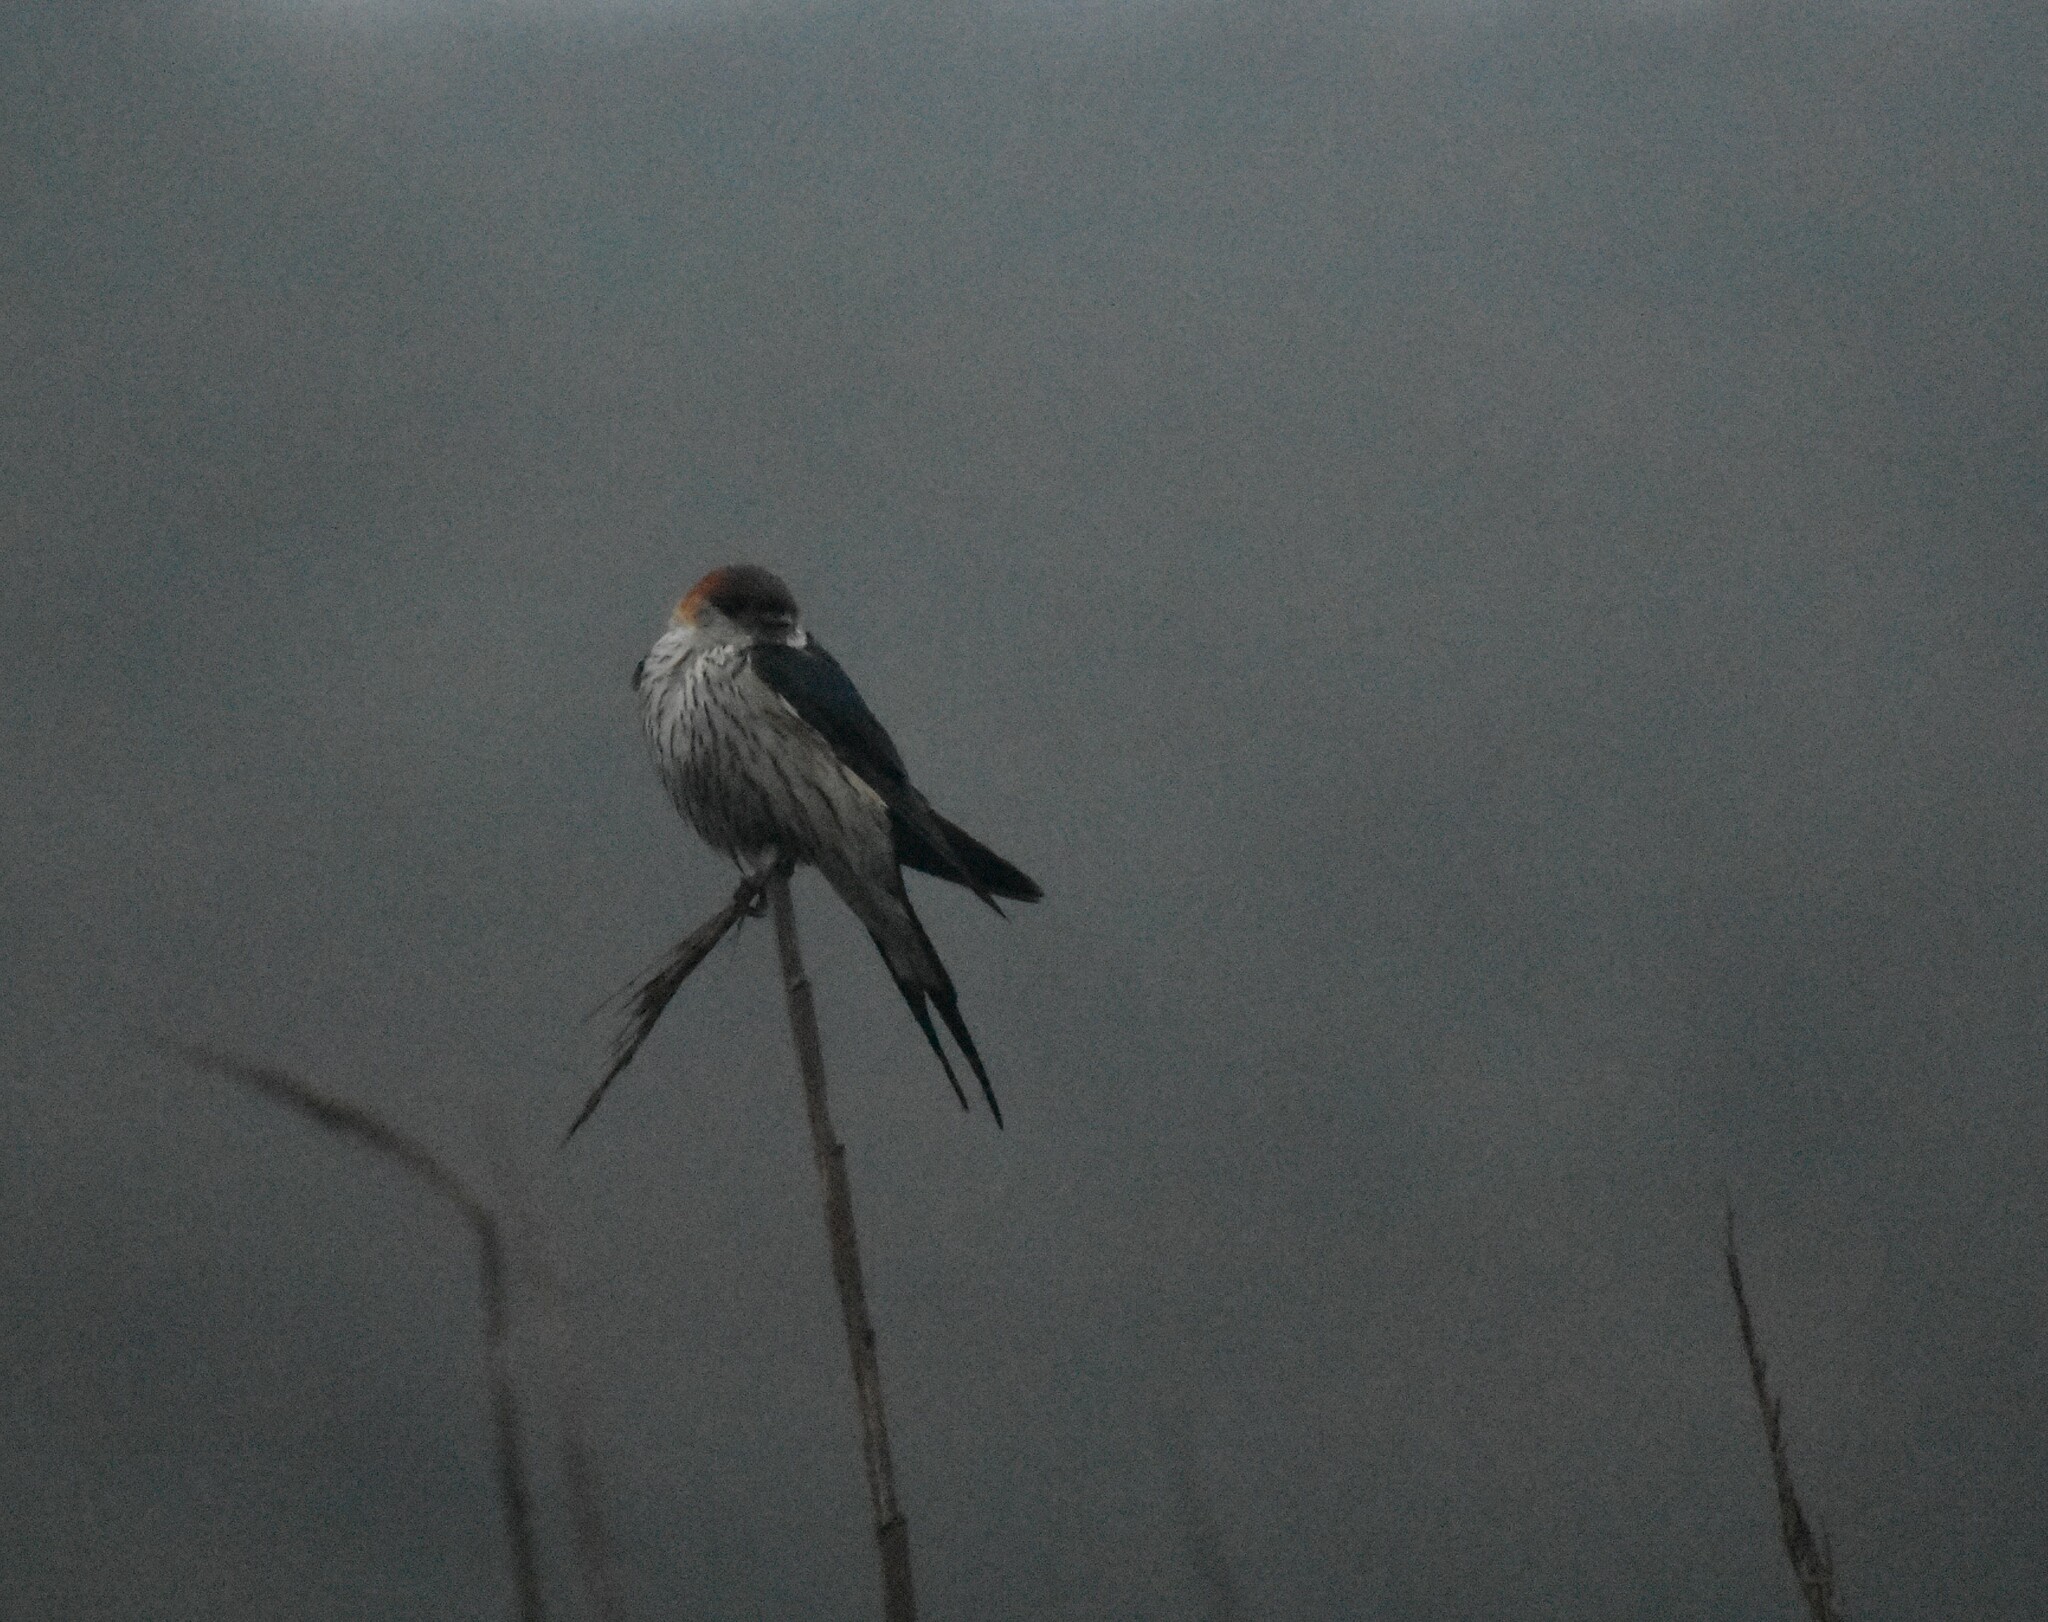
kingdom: Animalia
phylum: Chordata
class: Aves
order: Passeriformes
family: Hirundinidae
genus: Cecropis
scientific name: Cecropis cucullata
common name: Greater striped-swallow
